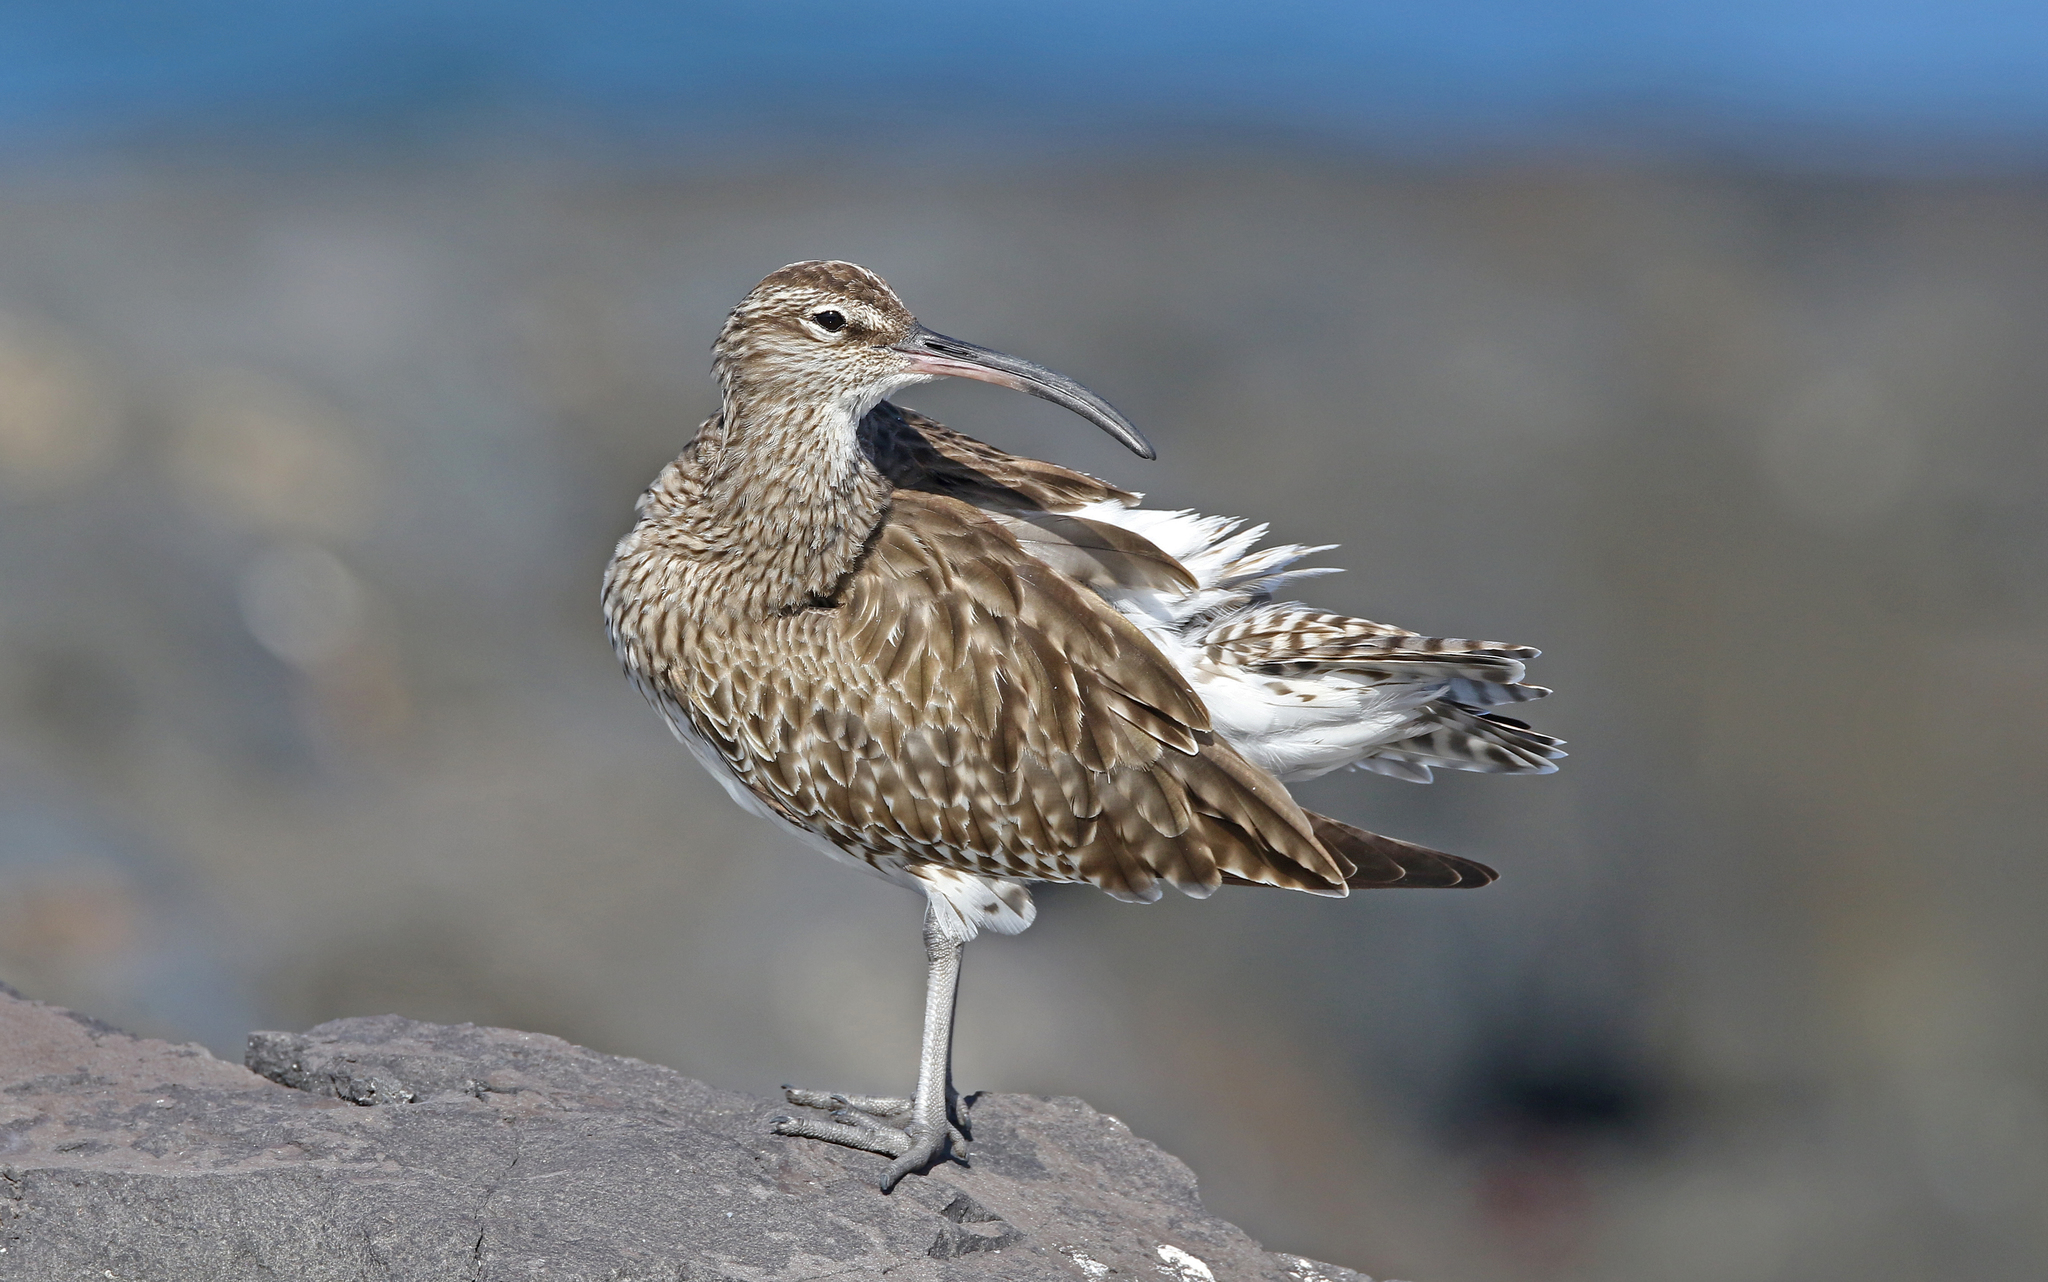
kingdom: Animalia
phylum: Chordata
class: Aves
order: Charadriiformes
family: Scolopacidae
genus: Numenius
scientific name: Numenius phaeopus
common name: Whimbrel
